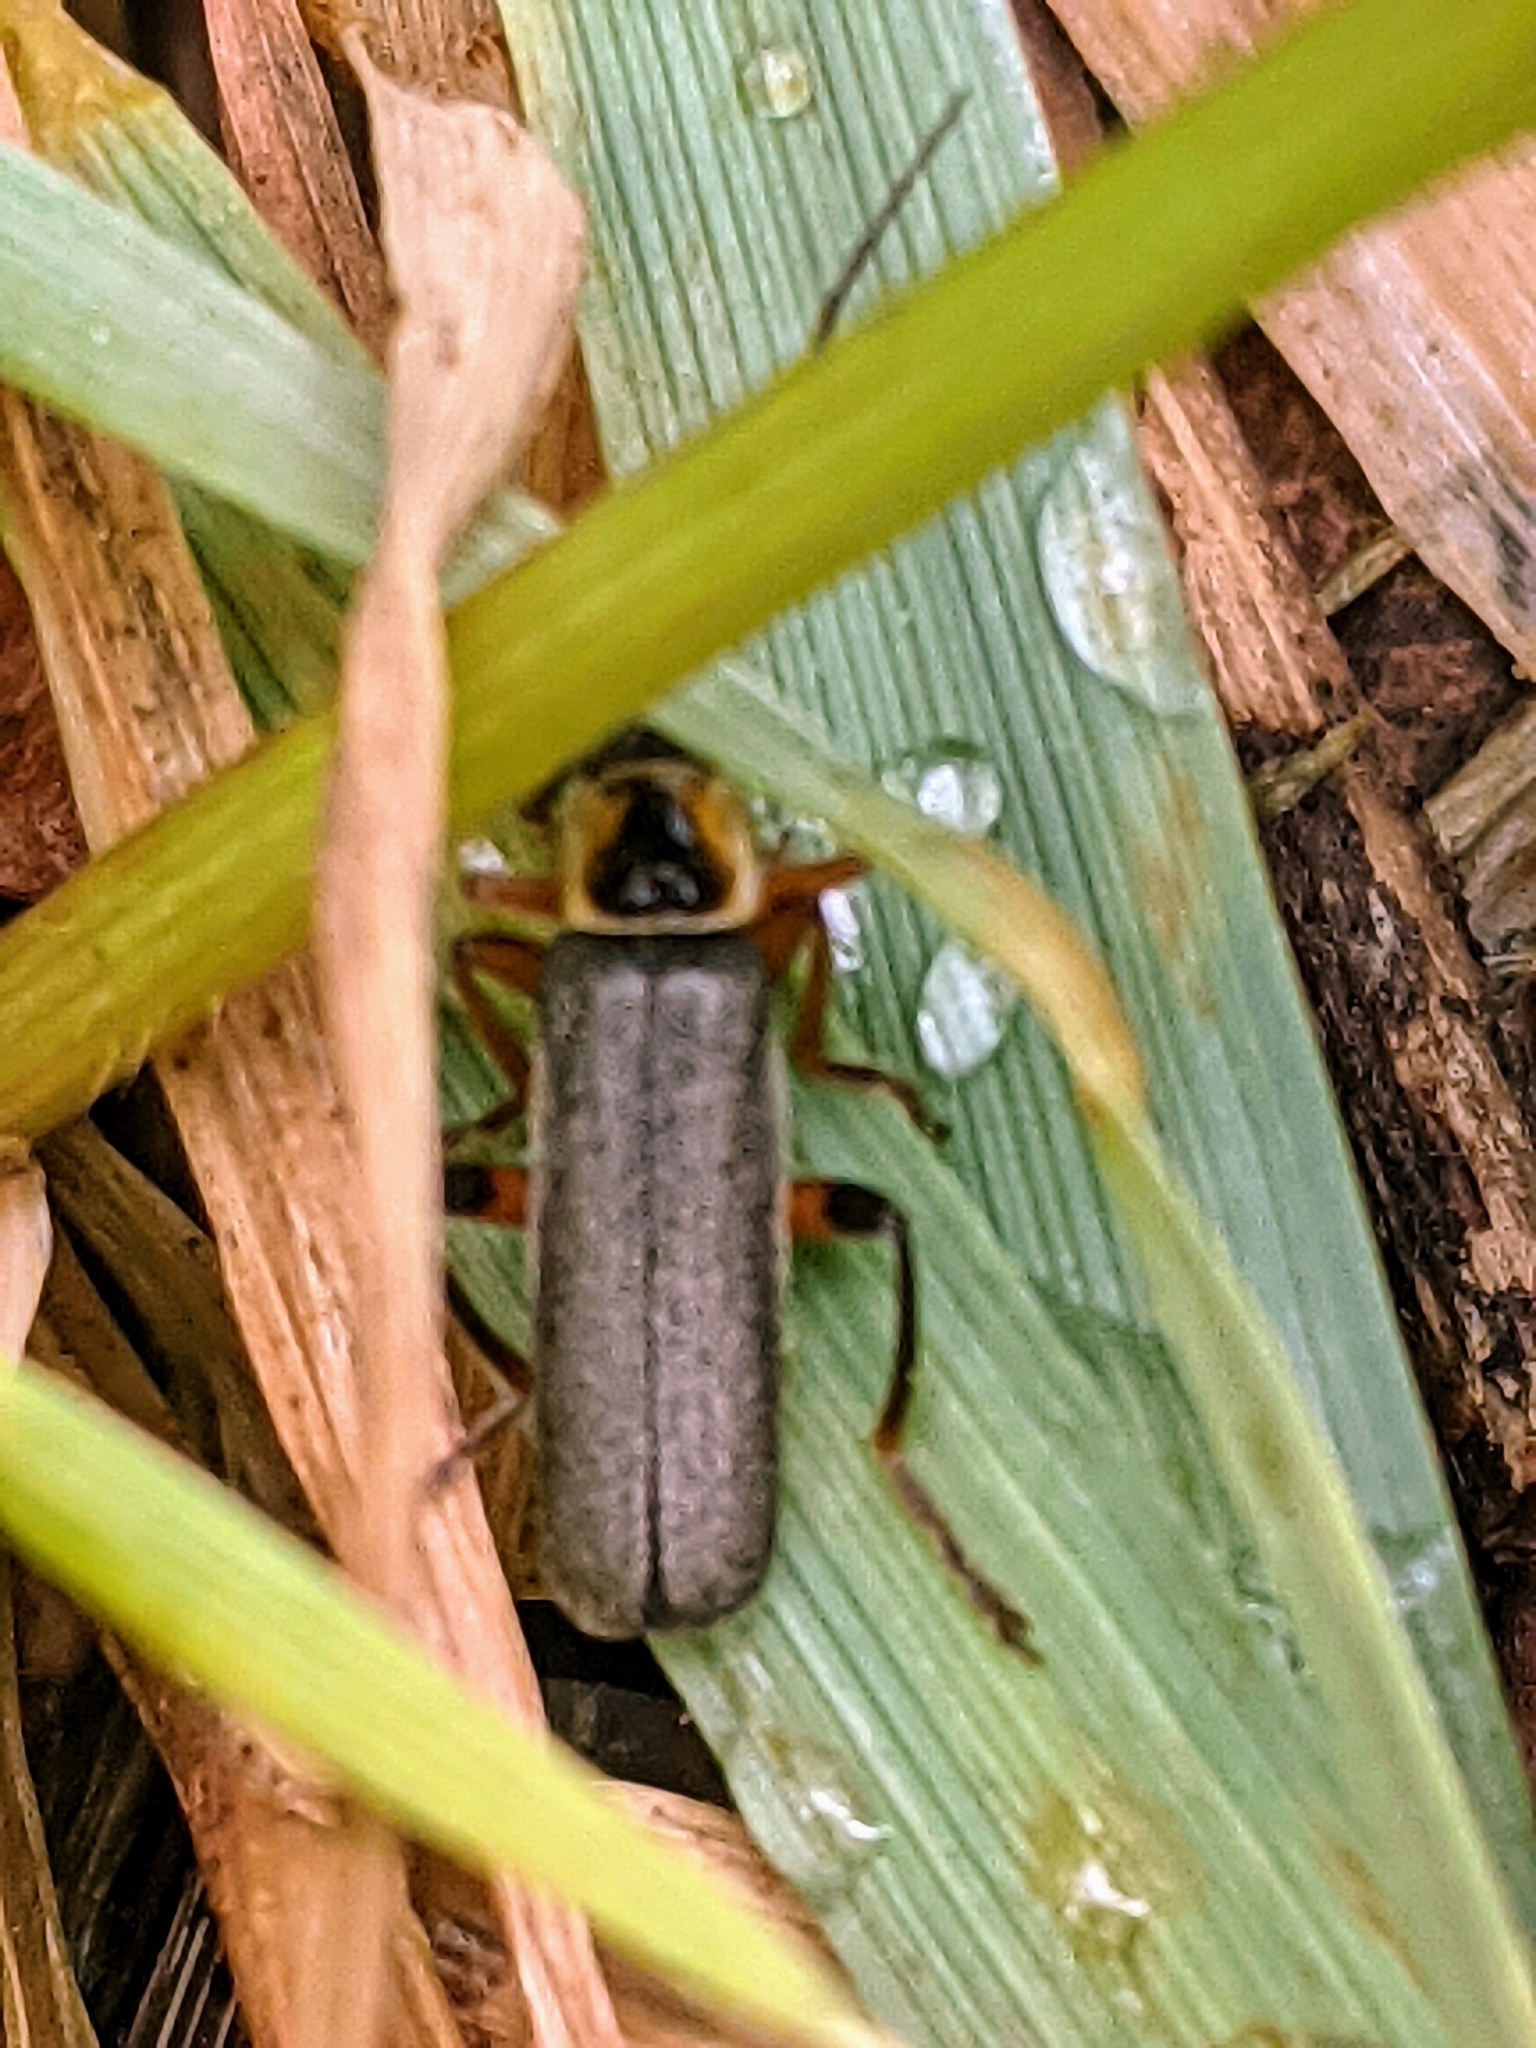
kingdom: Animalia
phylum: Arthropoda
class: Insecta
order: Coleoptera
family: Cantharidae
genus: Cantharis
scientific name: Cantharis nigricans
